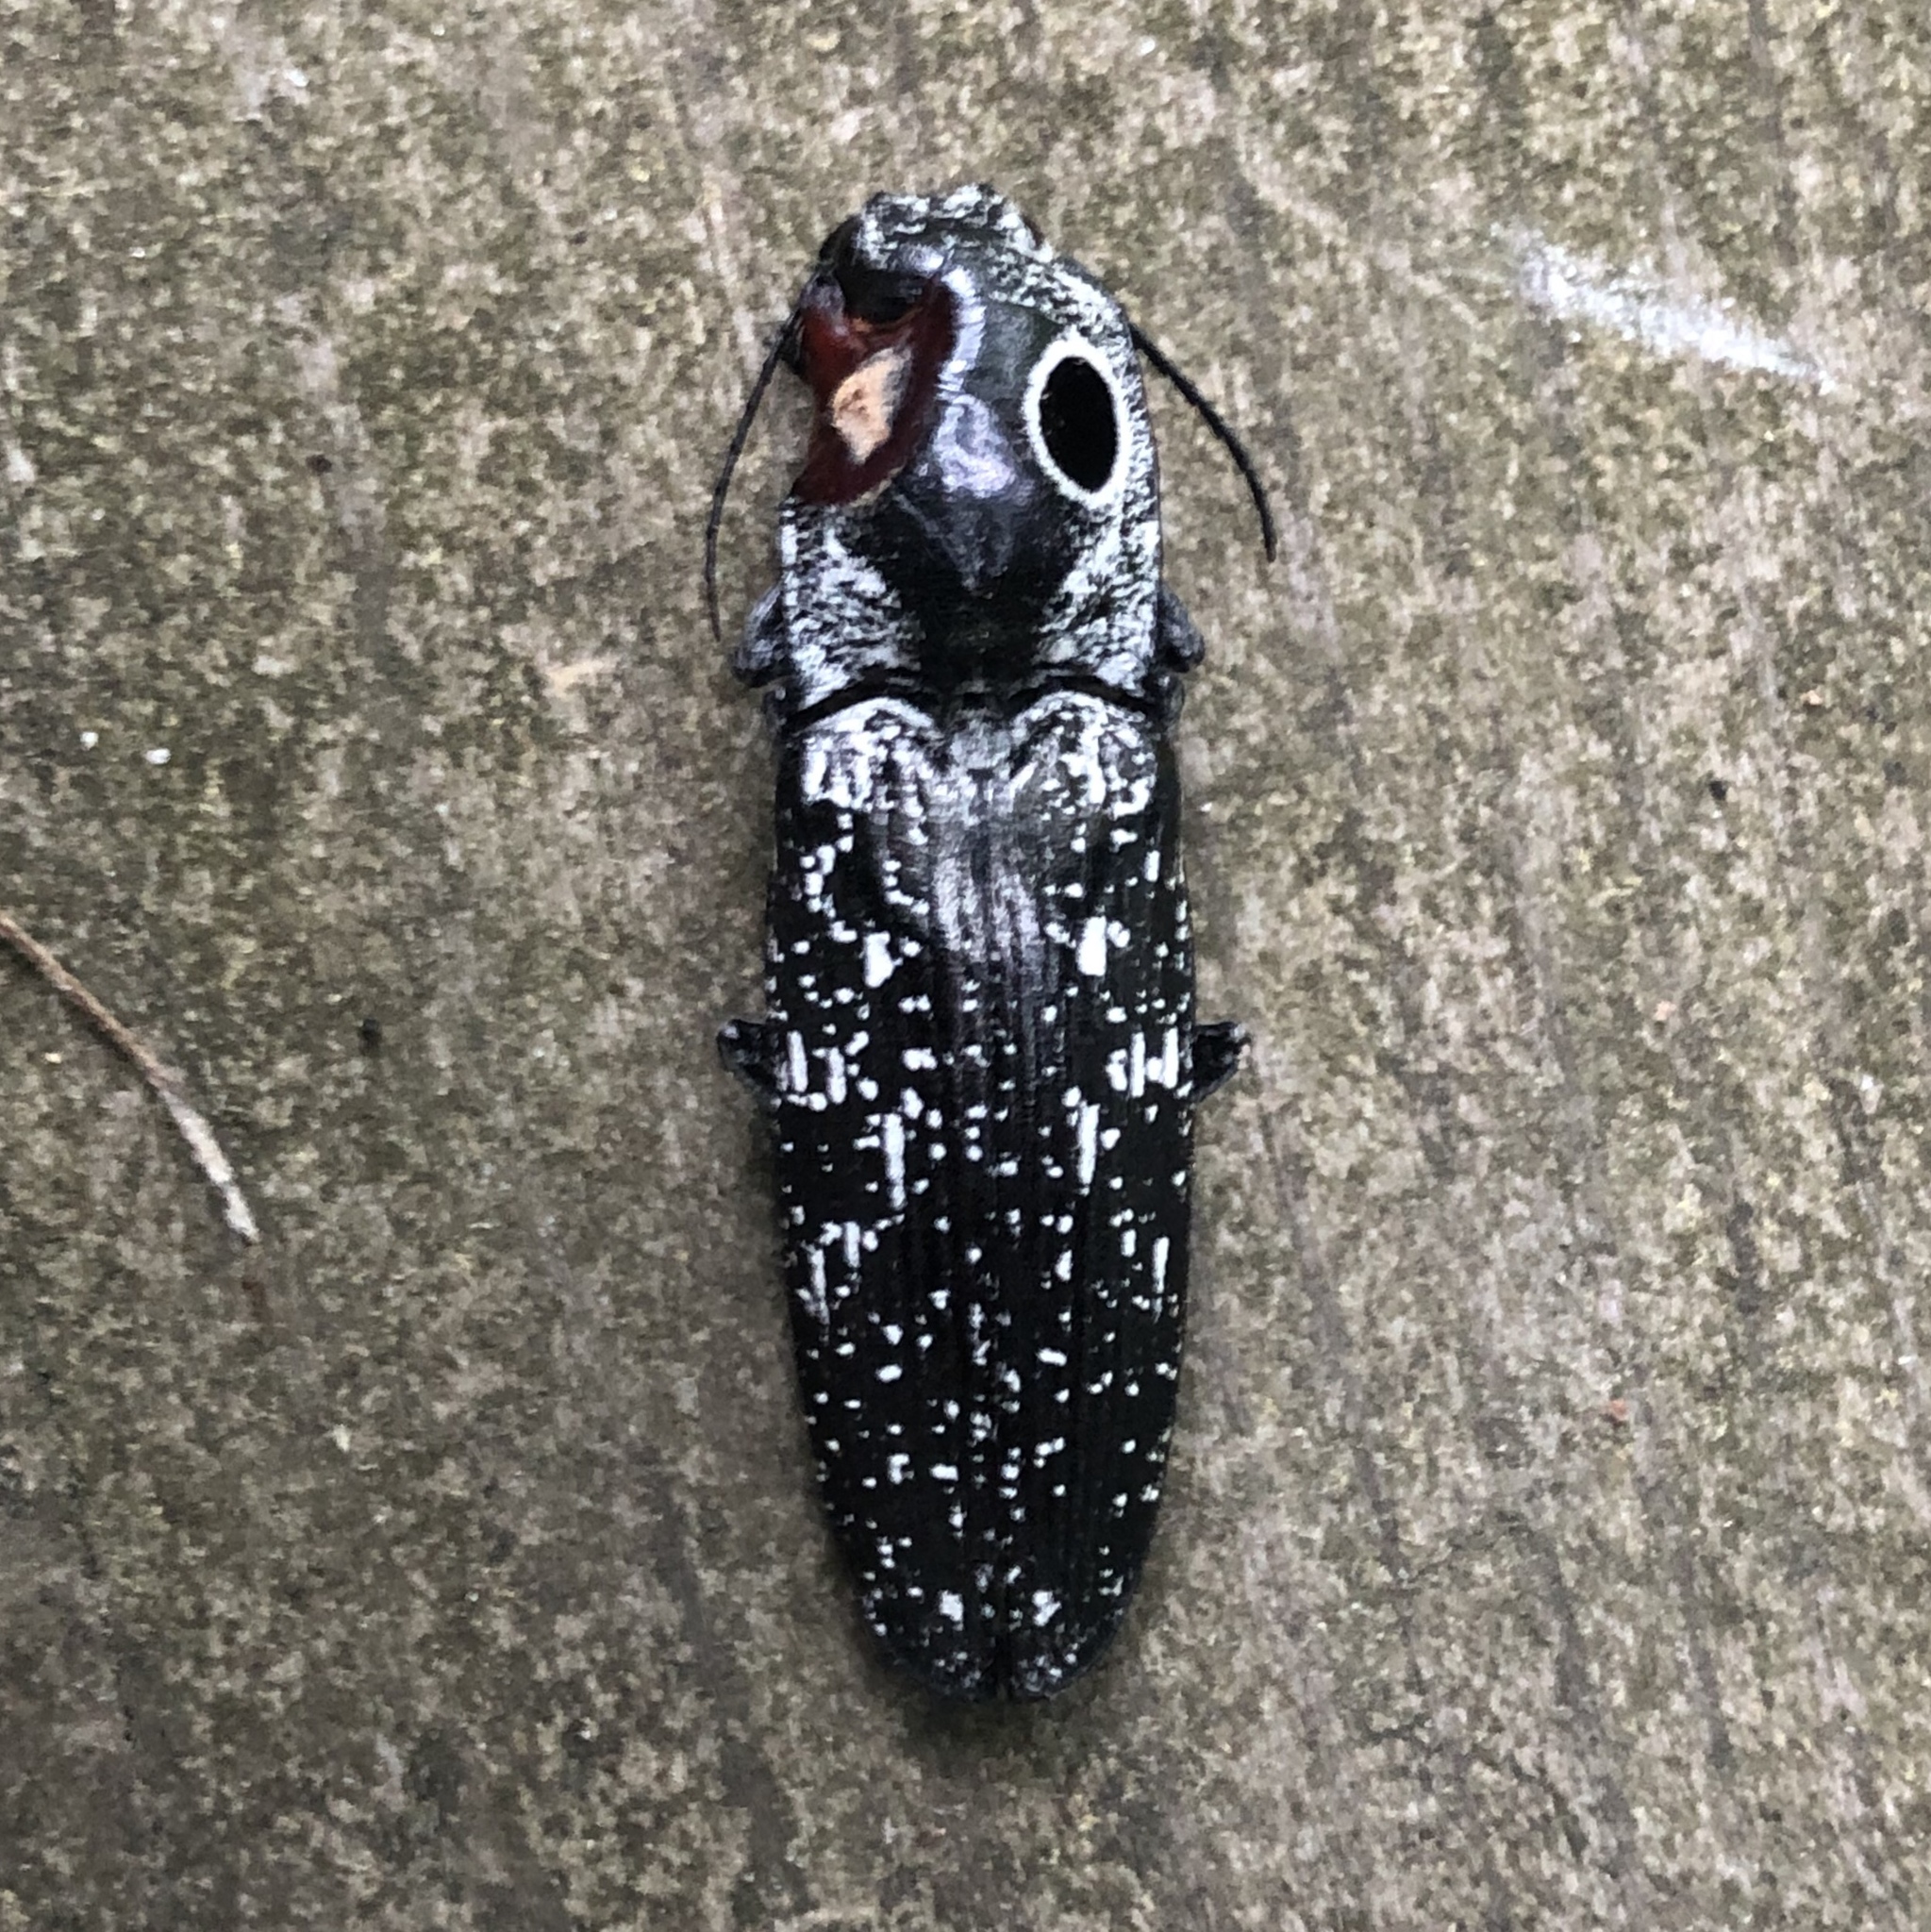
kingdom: Animalia
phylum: Arthropoda
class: Insecta
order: Coleoptera
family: Elateridae
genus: Alaus
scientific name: Alaus oculatus
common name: Eastern eyed click beetle
